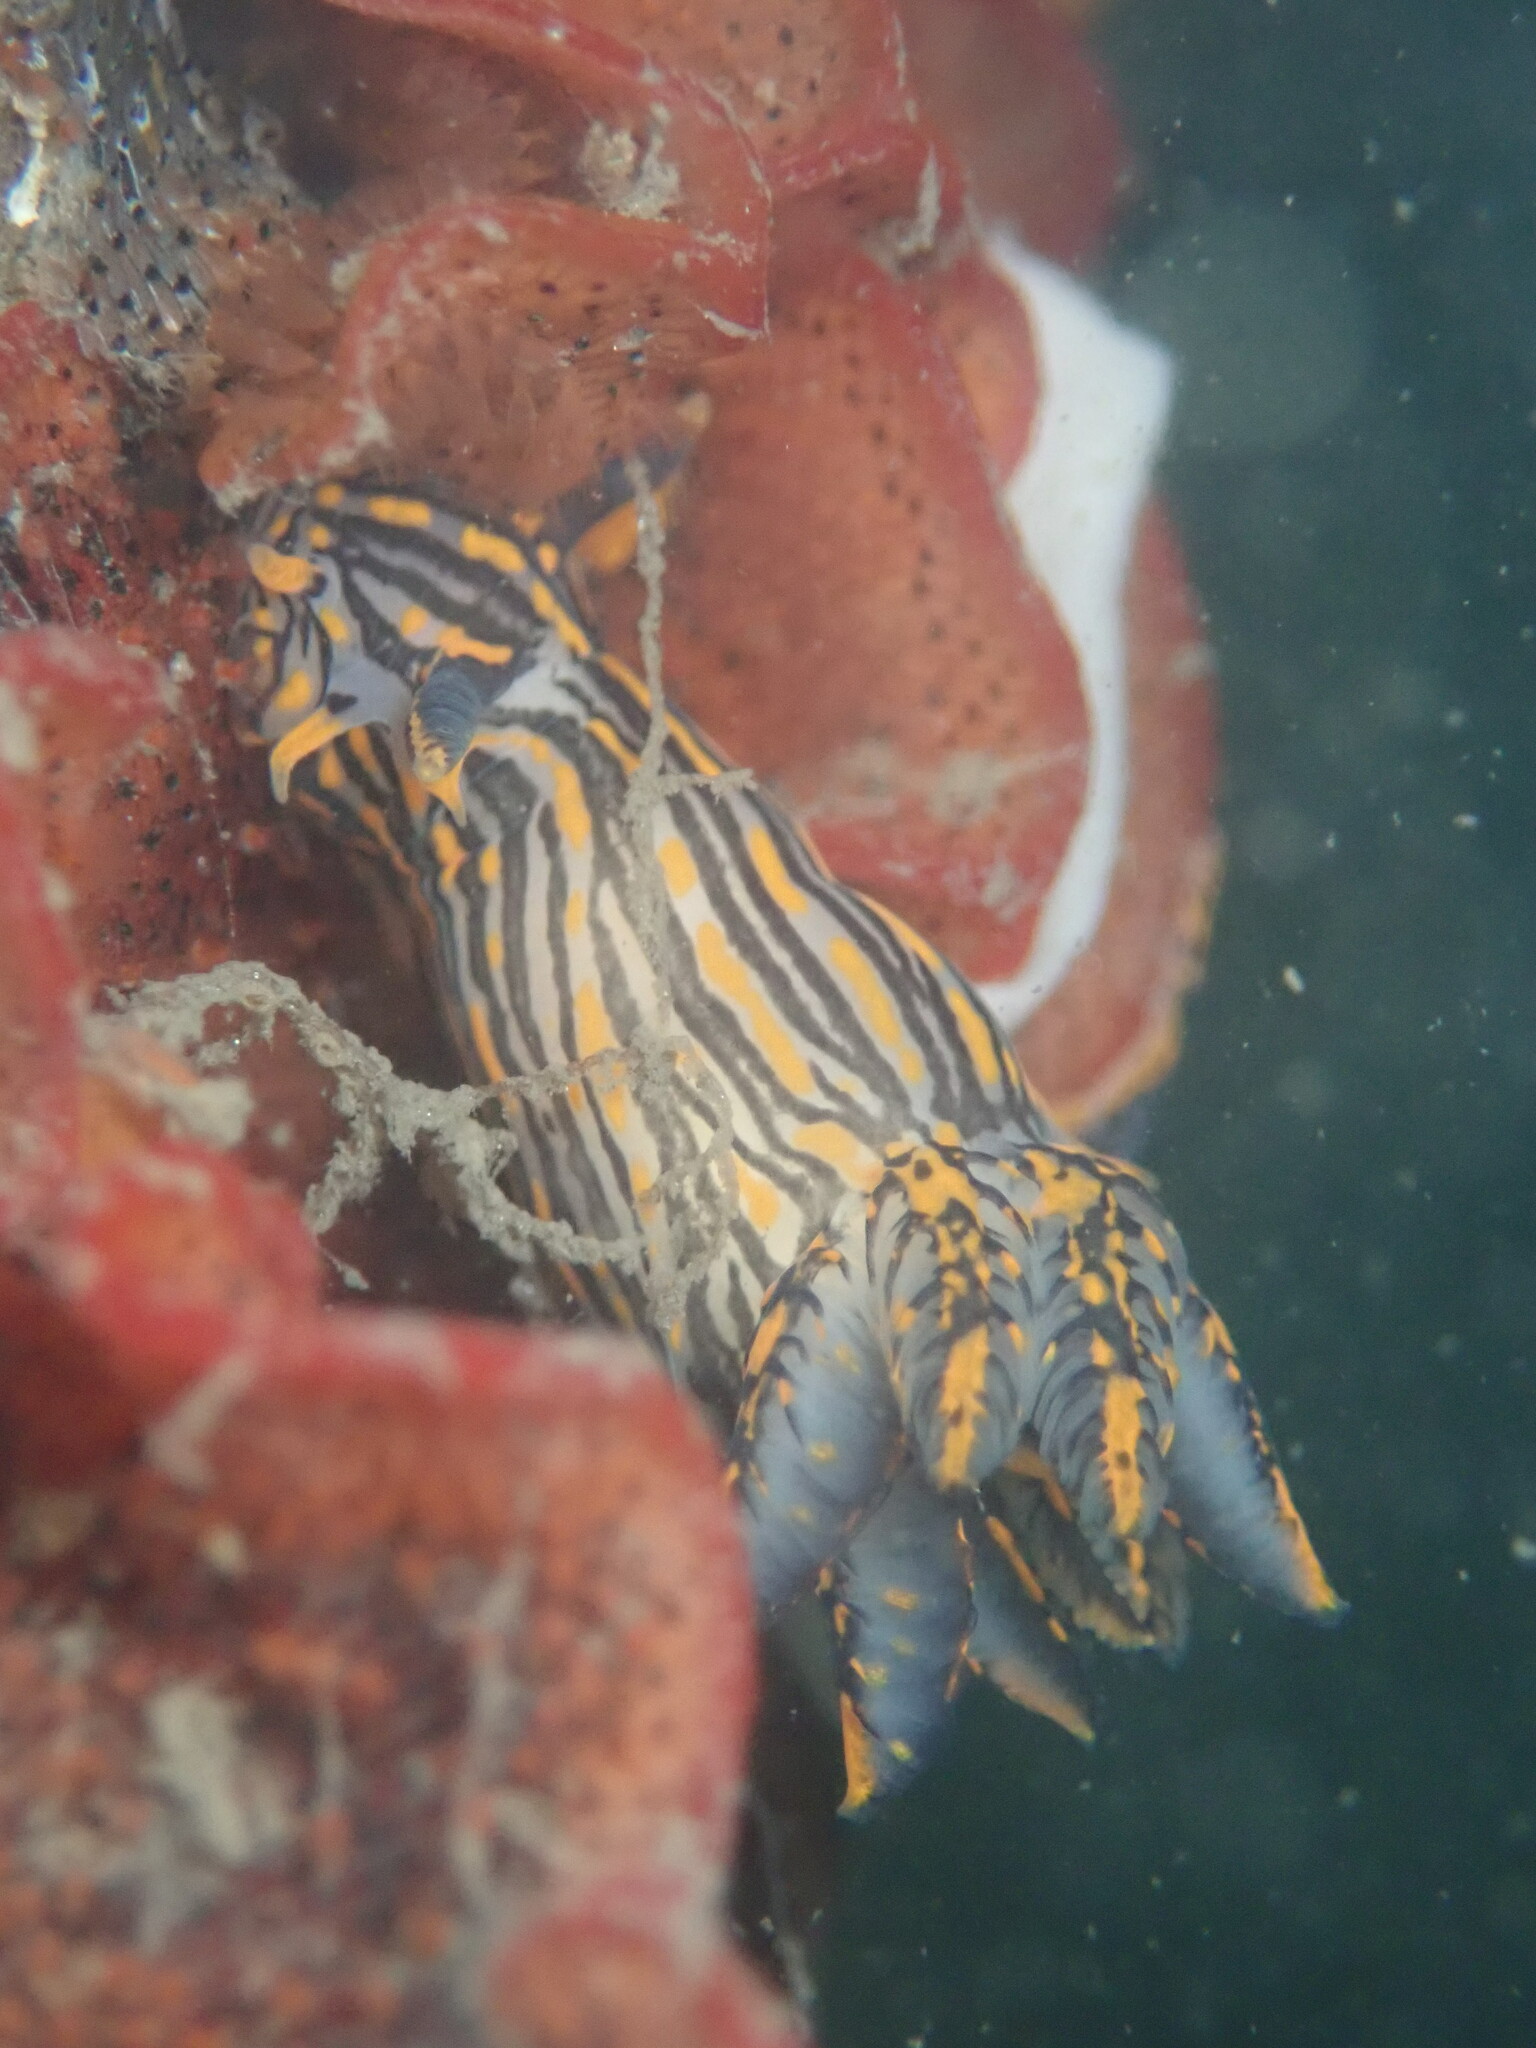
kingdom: Animalia
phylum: Mollusca
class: Gastropoda
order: Nudibranchia
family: Polyceridae
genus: Polycera
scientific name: Polycera atra
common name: Orange-spike polycera
